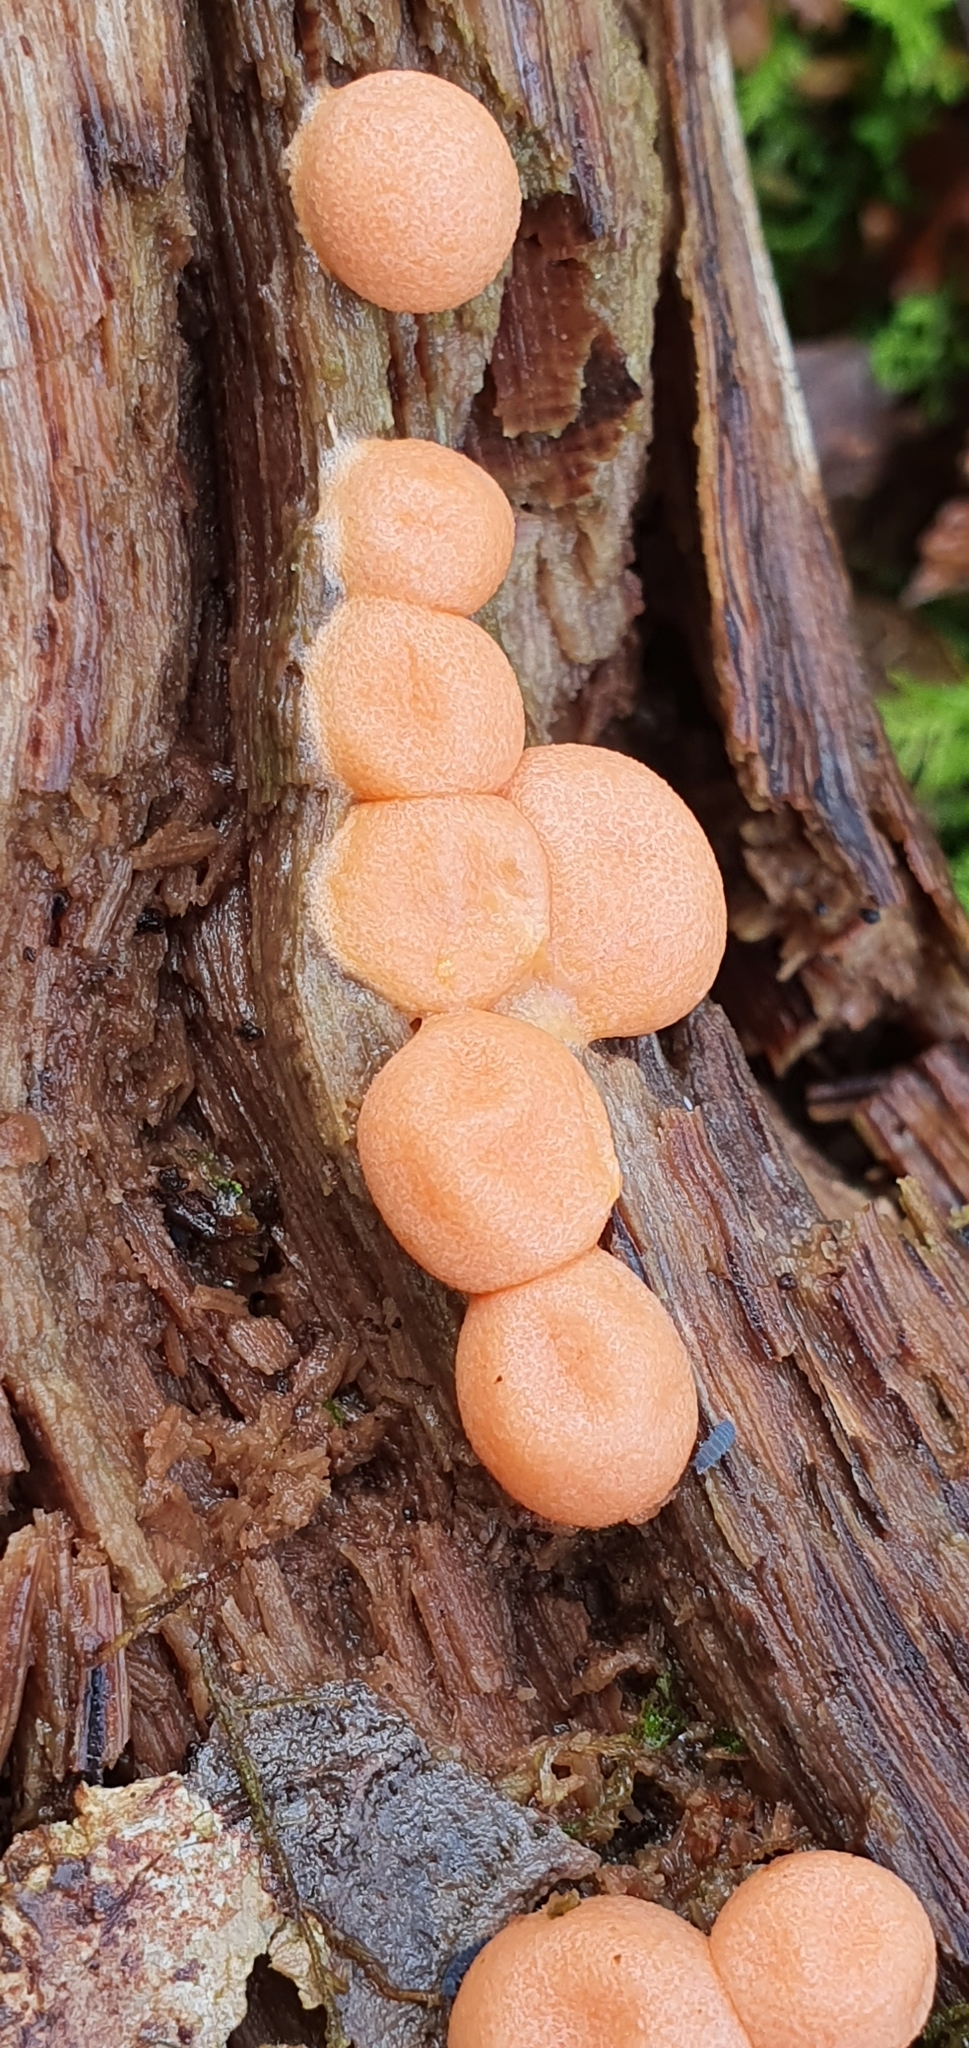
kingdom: Protozoa
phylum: Mycetozoa
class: Myxomycetes
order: Cribrariales
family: Tubiferaceae
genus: Lycogala
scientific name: Lycogala epidendrum
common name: Wolf's milk
